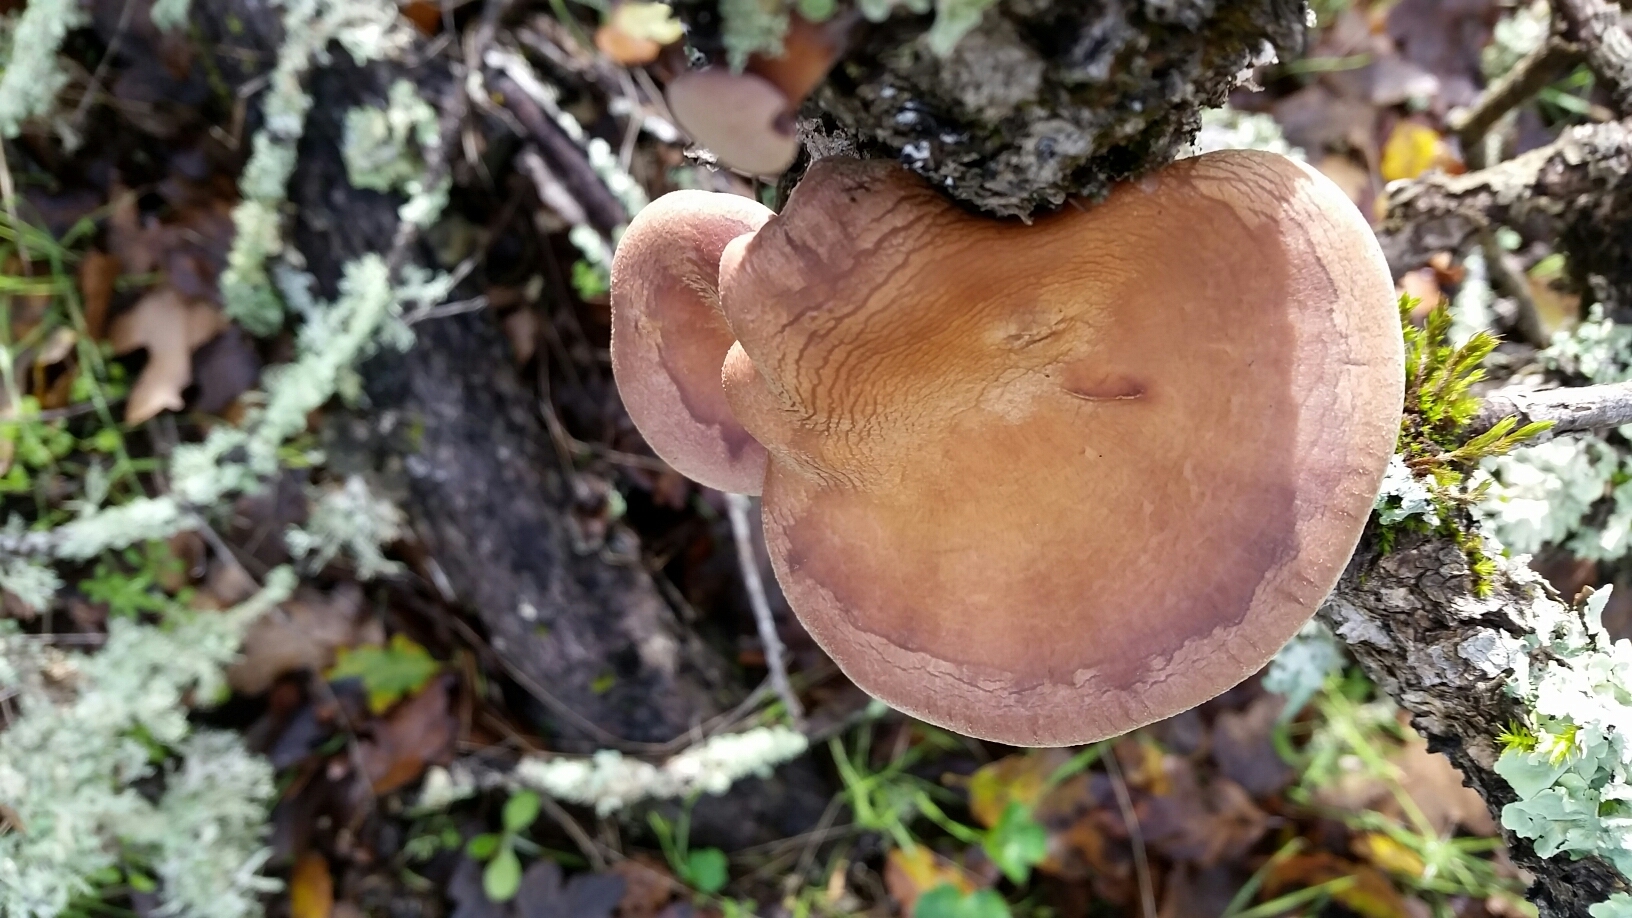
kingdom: Fungi
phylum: Basidiomycota
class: Agaricomycetes
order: Polyporales
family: Panaceae
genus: Panus
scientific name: Panus conchatus
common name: Lilac oysterling
